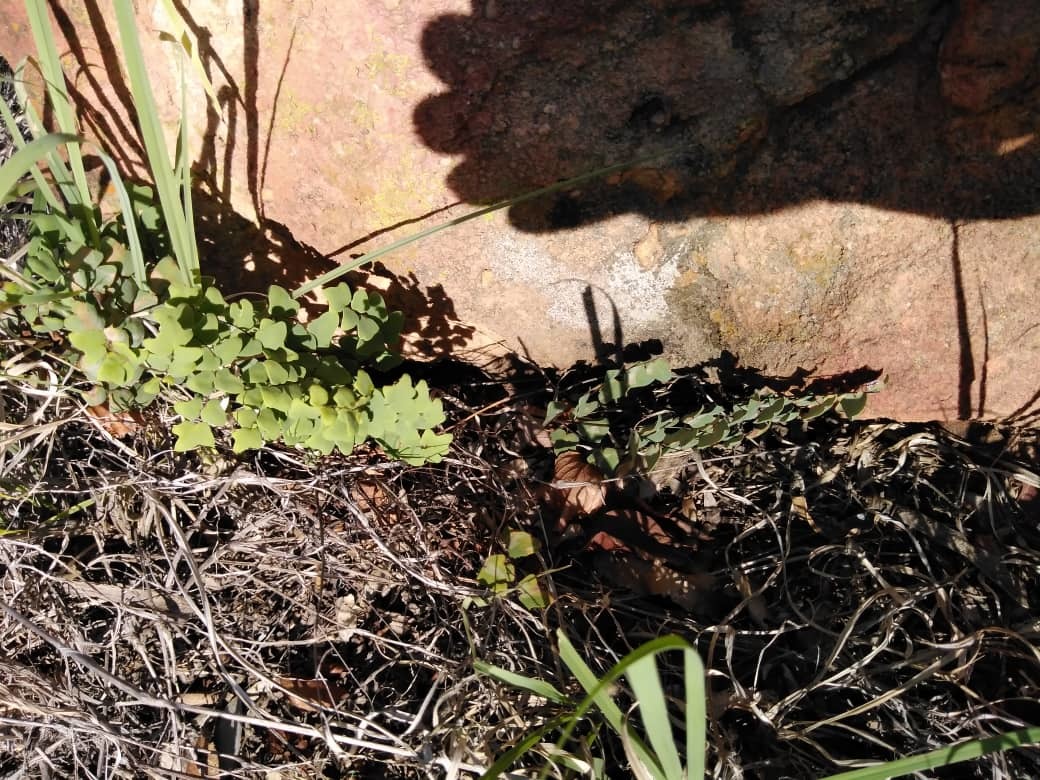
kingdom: Plantae
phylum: Tracheophyta
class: Polypodiopsida
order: Polypodiales
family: Pteridaceae
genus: Pellaea
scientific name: Pellaea calomelanos
